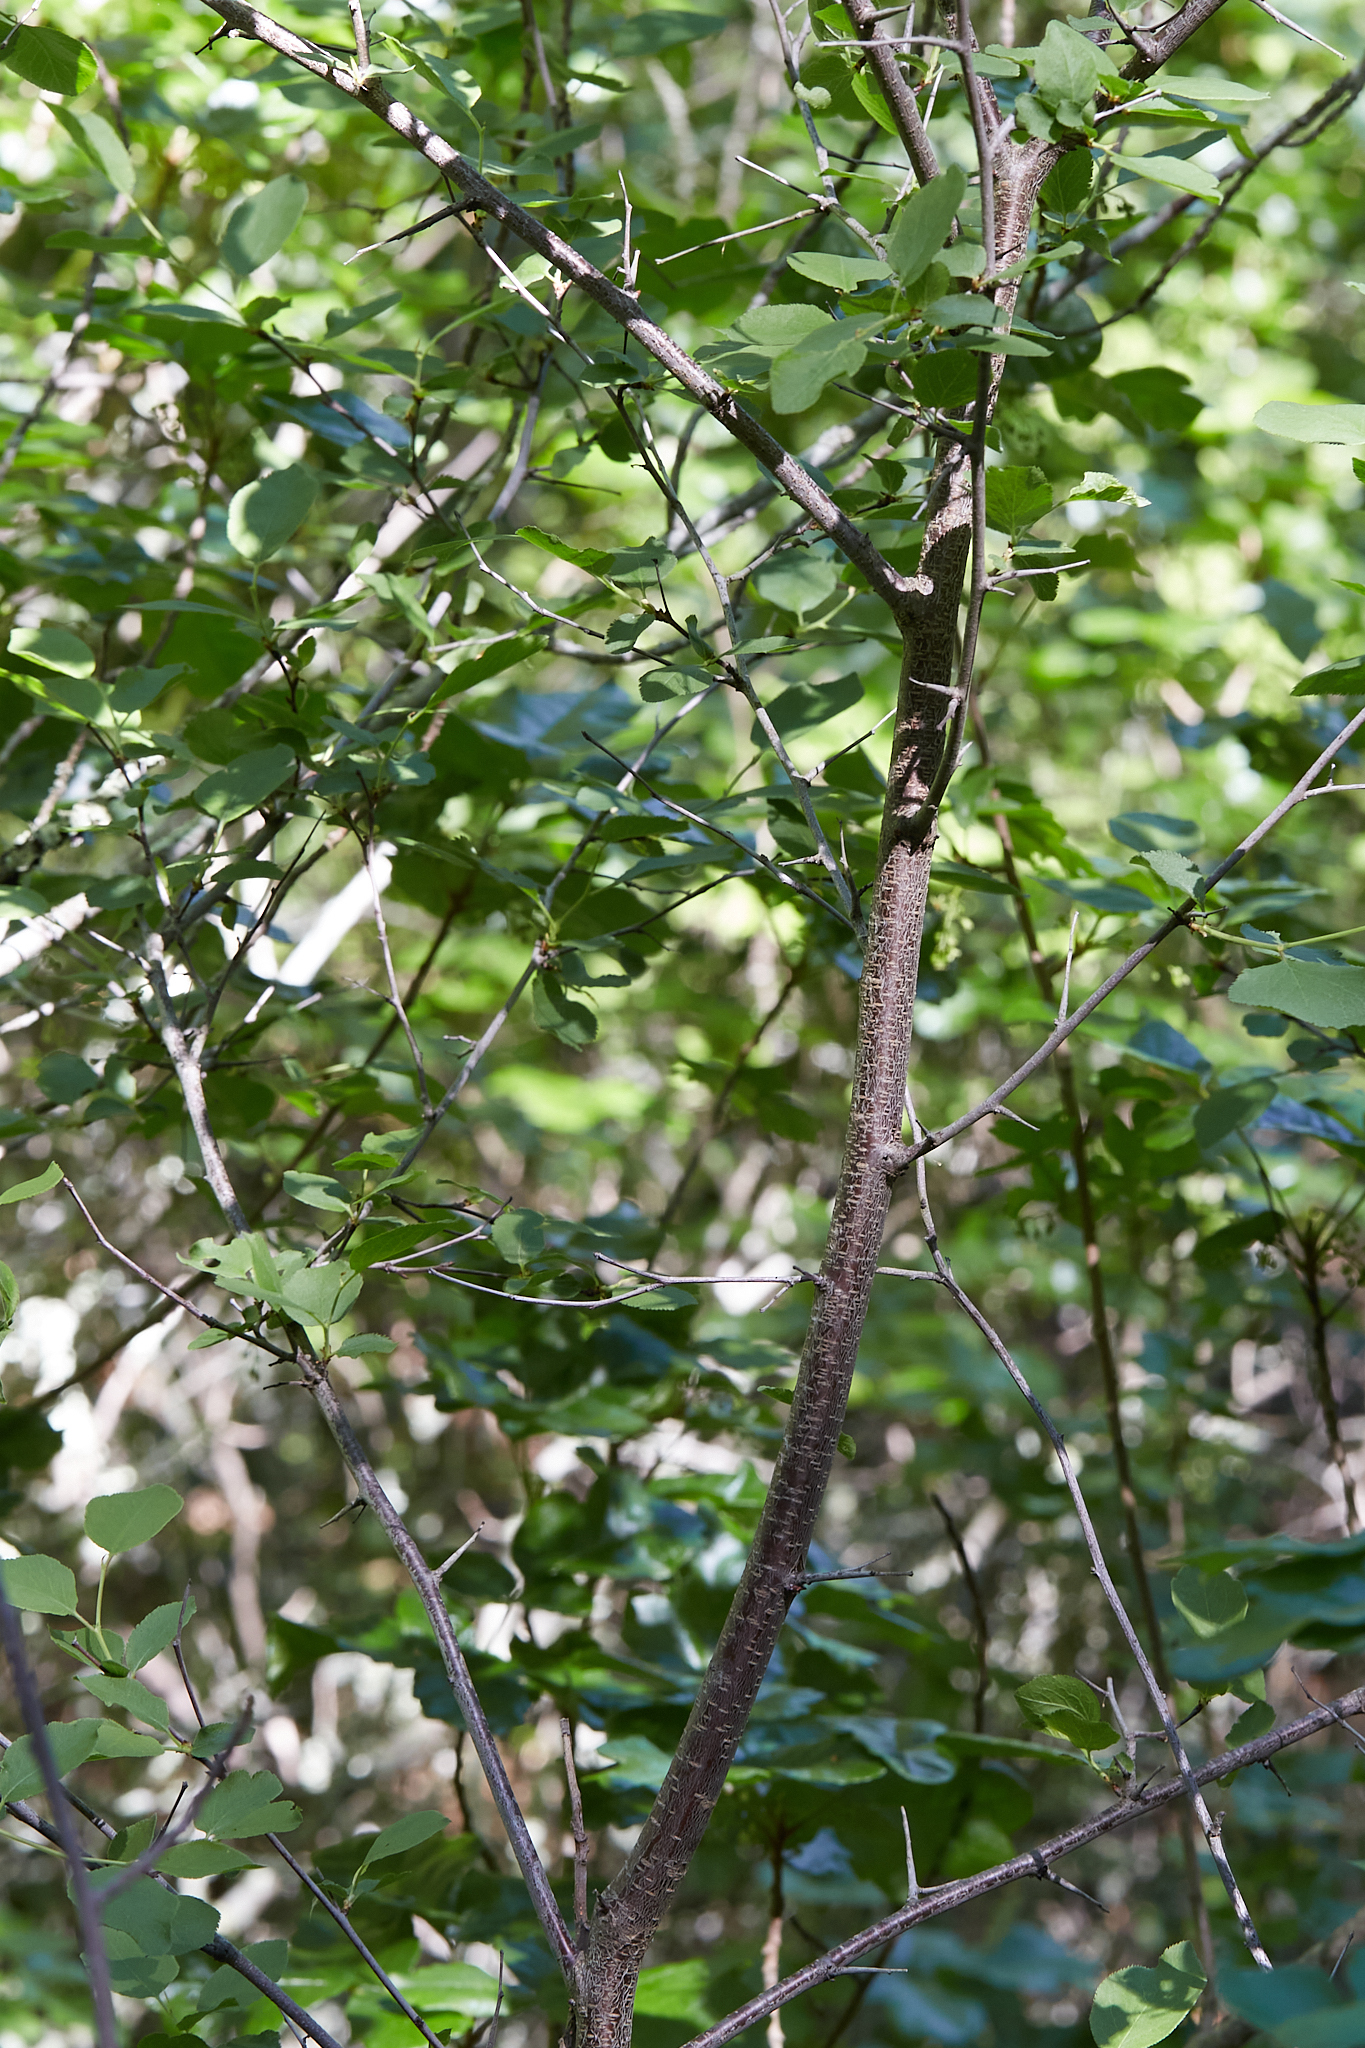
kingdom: Plantae
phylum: Tracheophyta
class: Magnoliopsida
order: Rosales
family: Rosaceae
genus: Prunus
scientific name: Prunus subcordata
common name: Klamath plum
